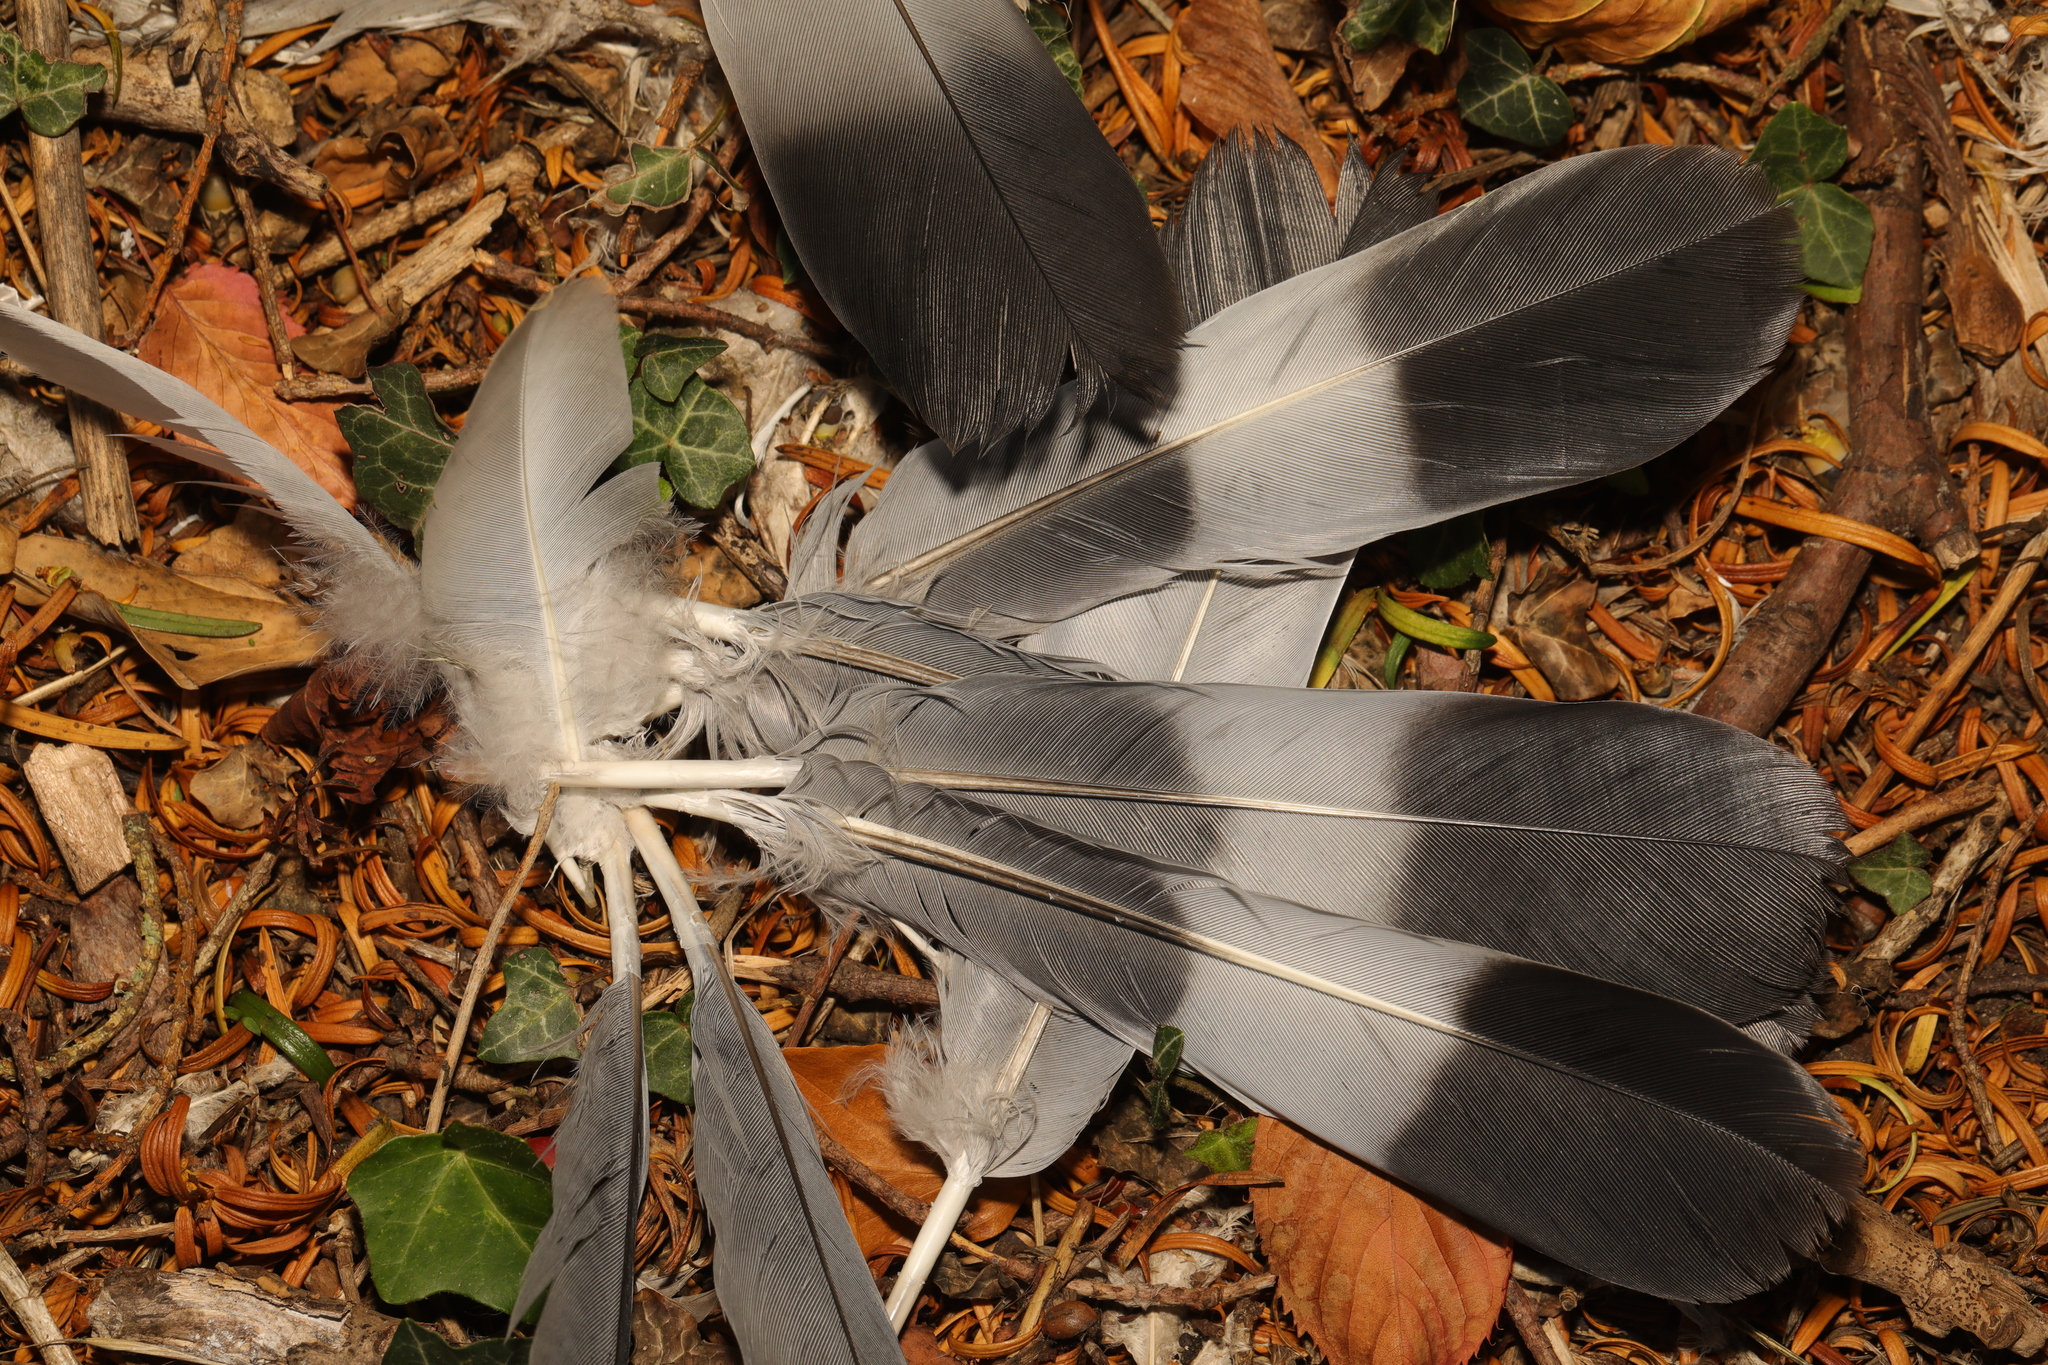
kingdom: Animalia
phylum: Chordata
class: Aves
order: Columbiformes
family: Columbidae
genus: Columba
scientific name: Columba palumbus
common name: Common wood pigeon
